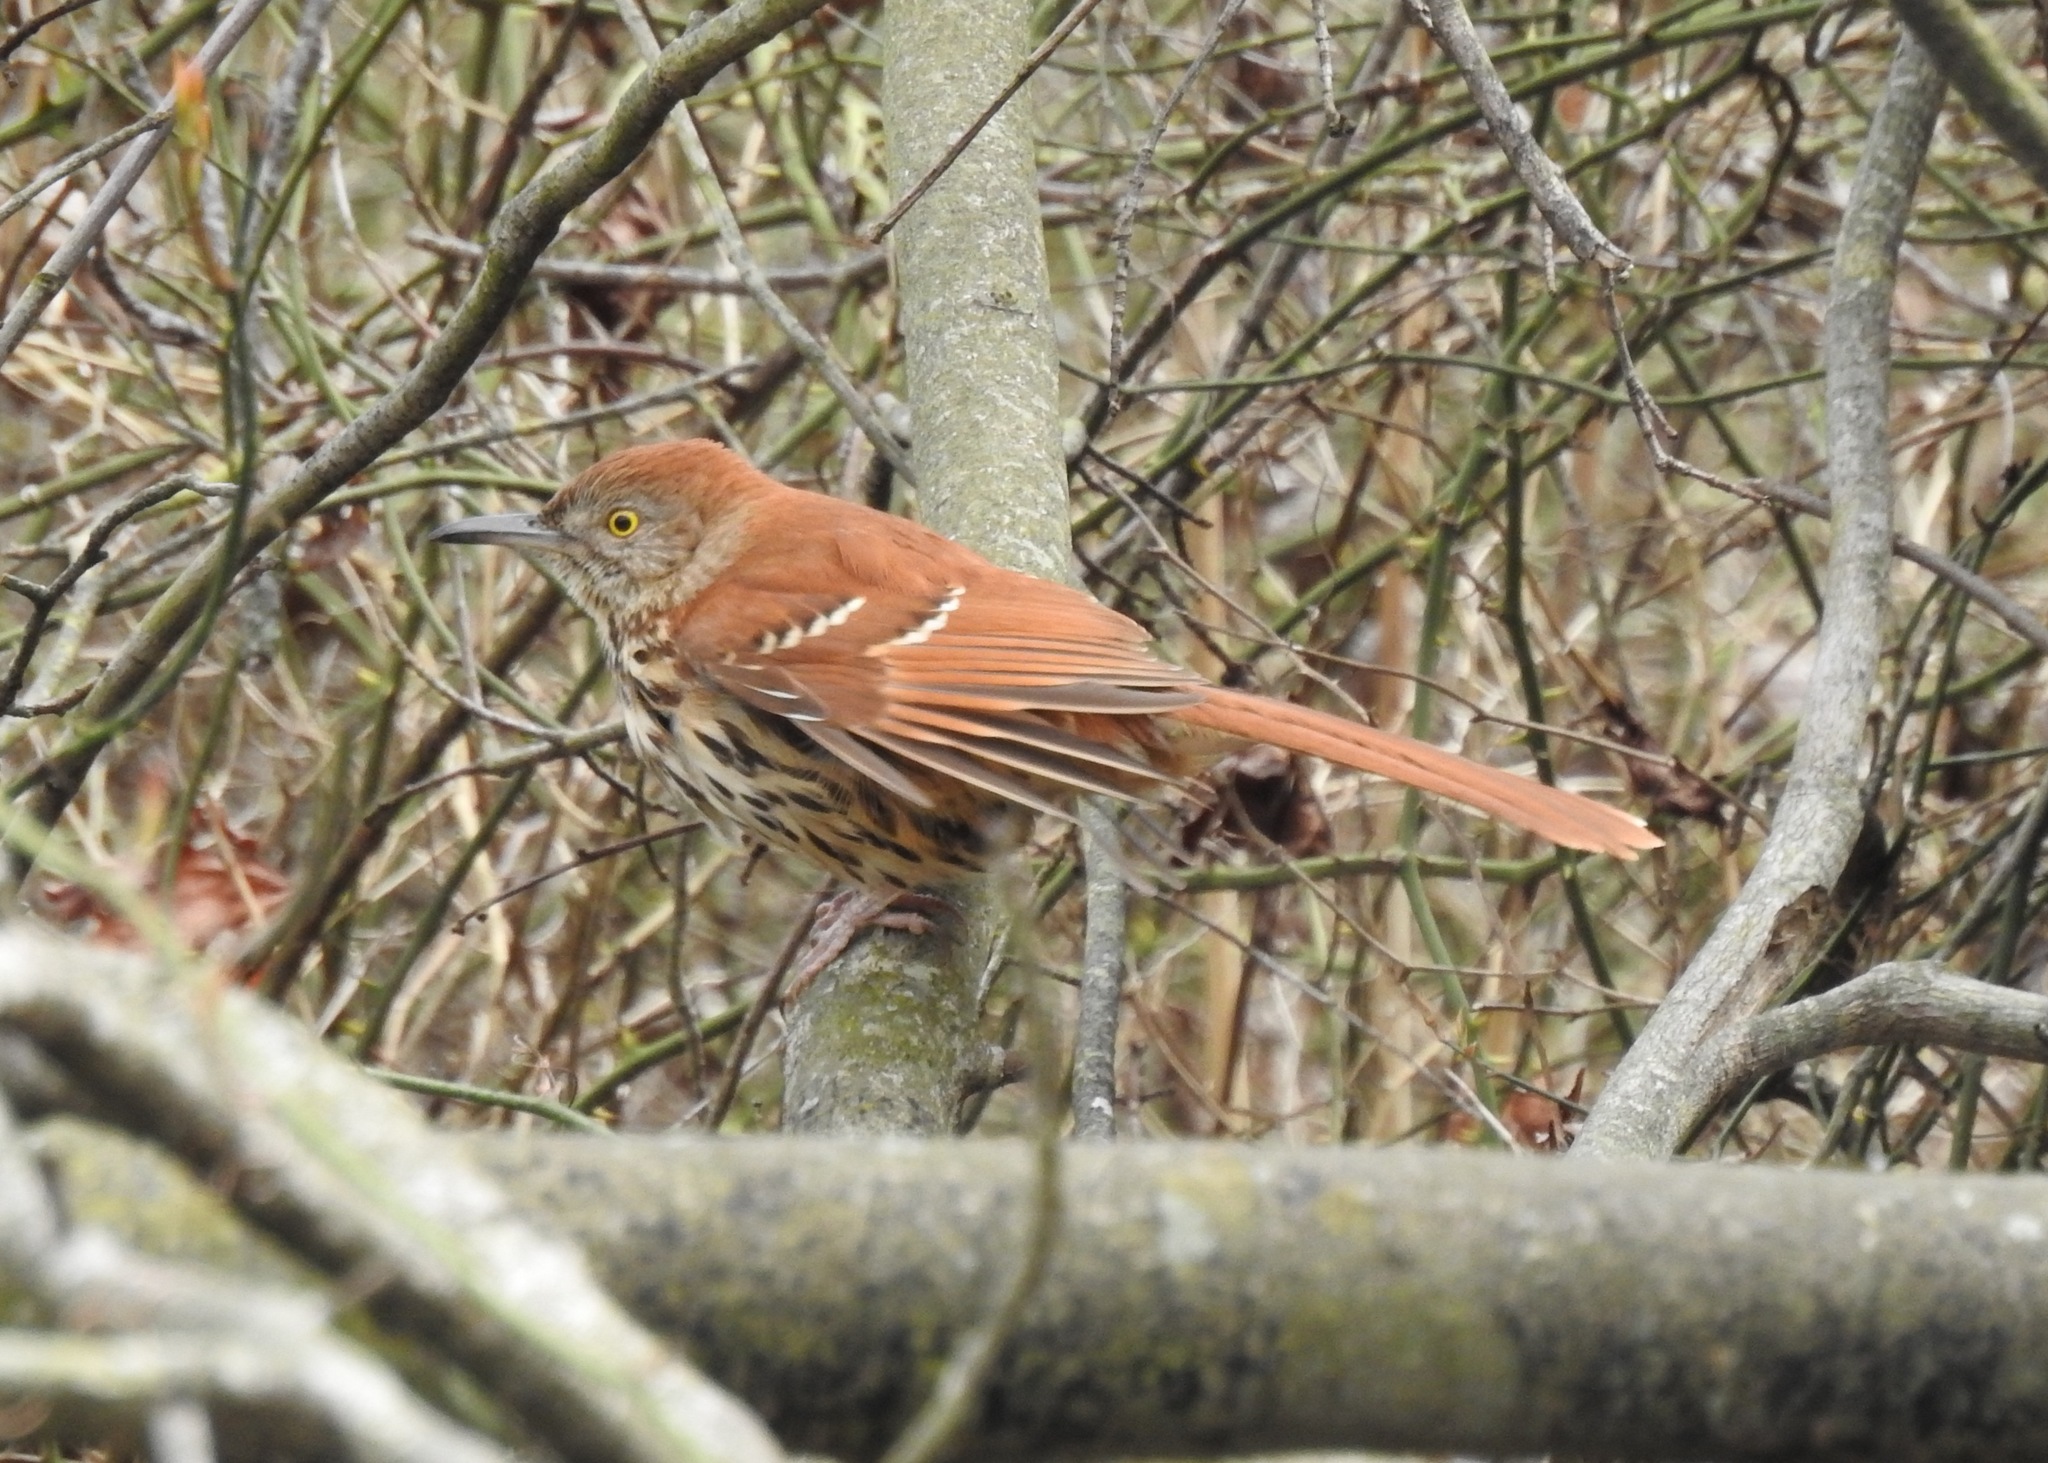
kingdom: Animalia
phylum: Chordata
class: Aves
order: Passeriformes
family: Mimidae
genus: Toxostoma
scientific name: Toxostoma rufum
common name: Brown thrasher
